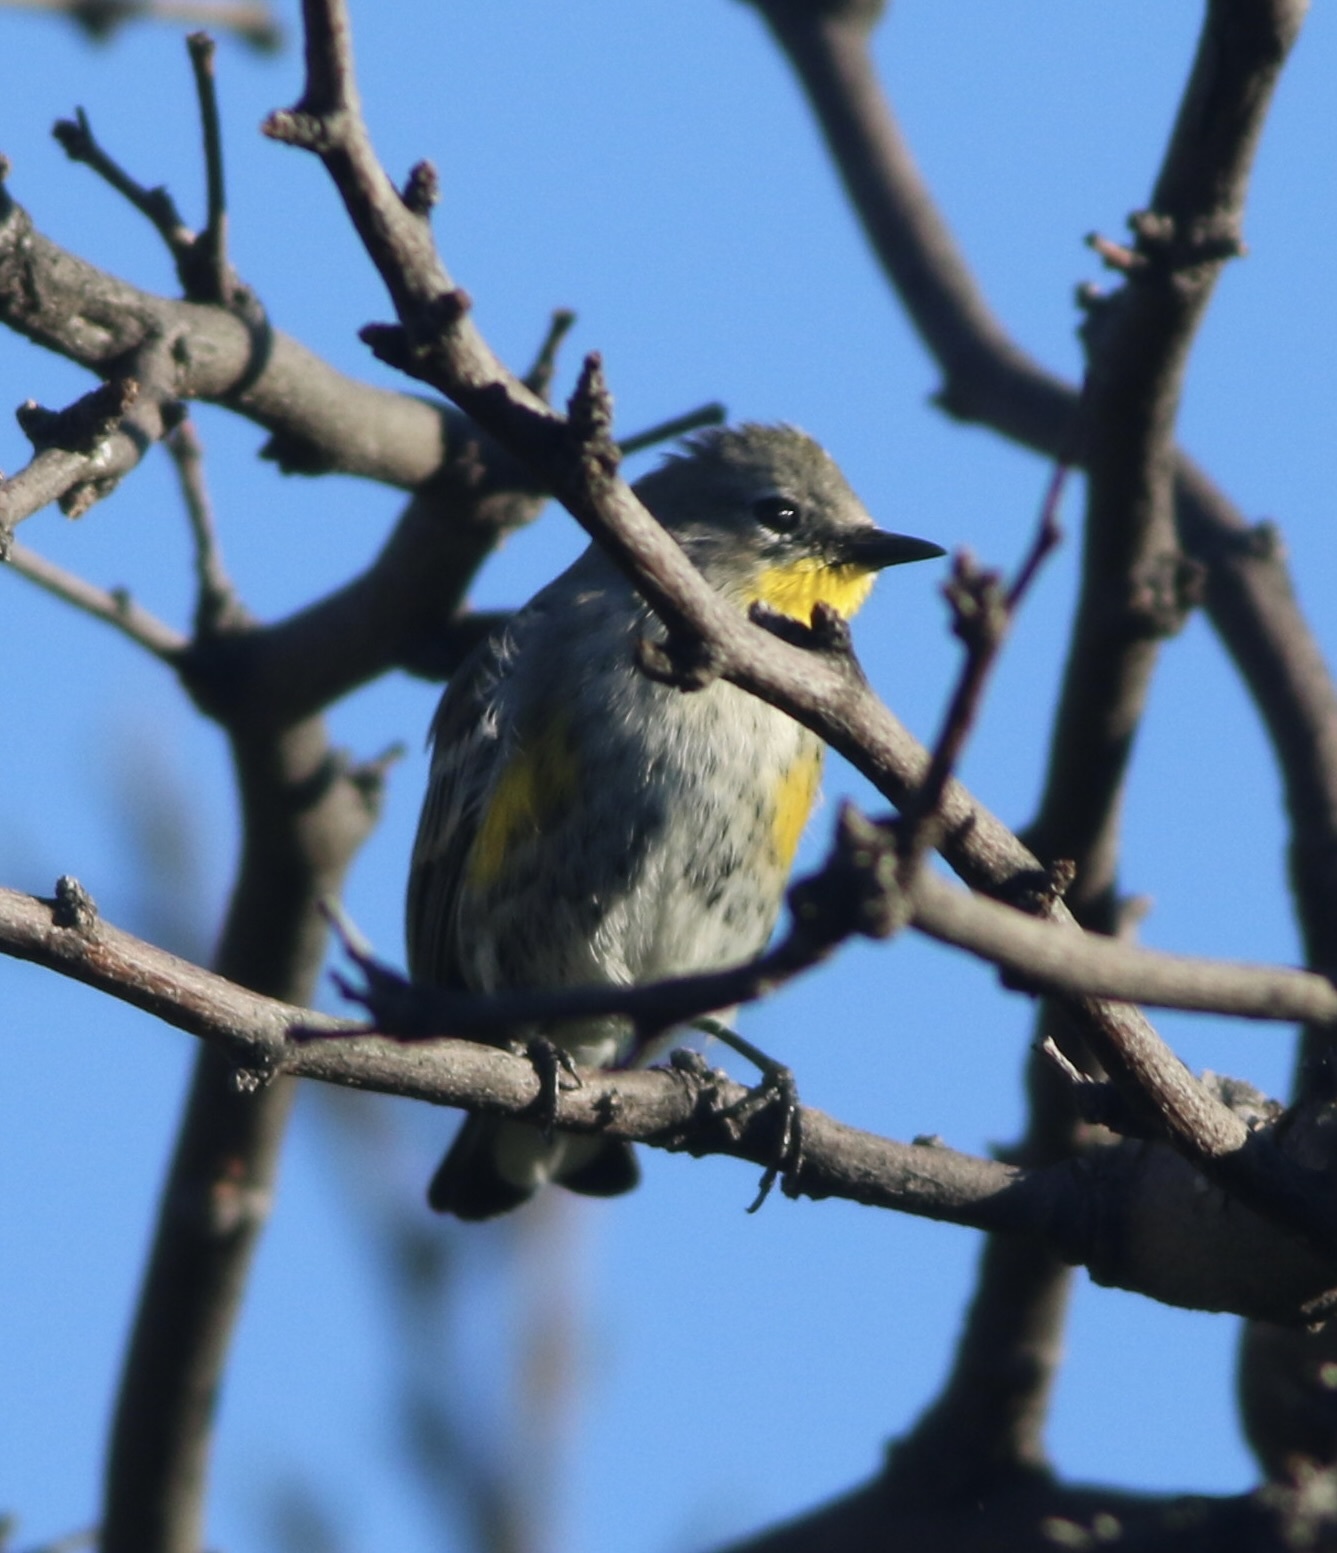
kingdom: Animalia
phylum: Chordata
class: Aves
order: Passeriformes
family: Parulidae
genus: Setophaga
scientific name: Setophaga coronata
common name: Myrtle warbler
